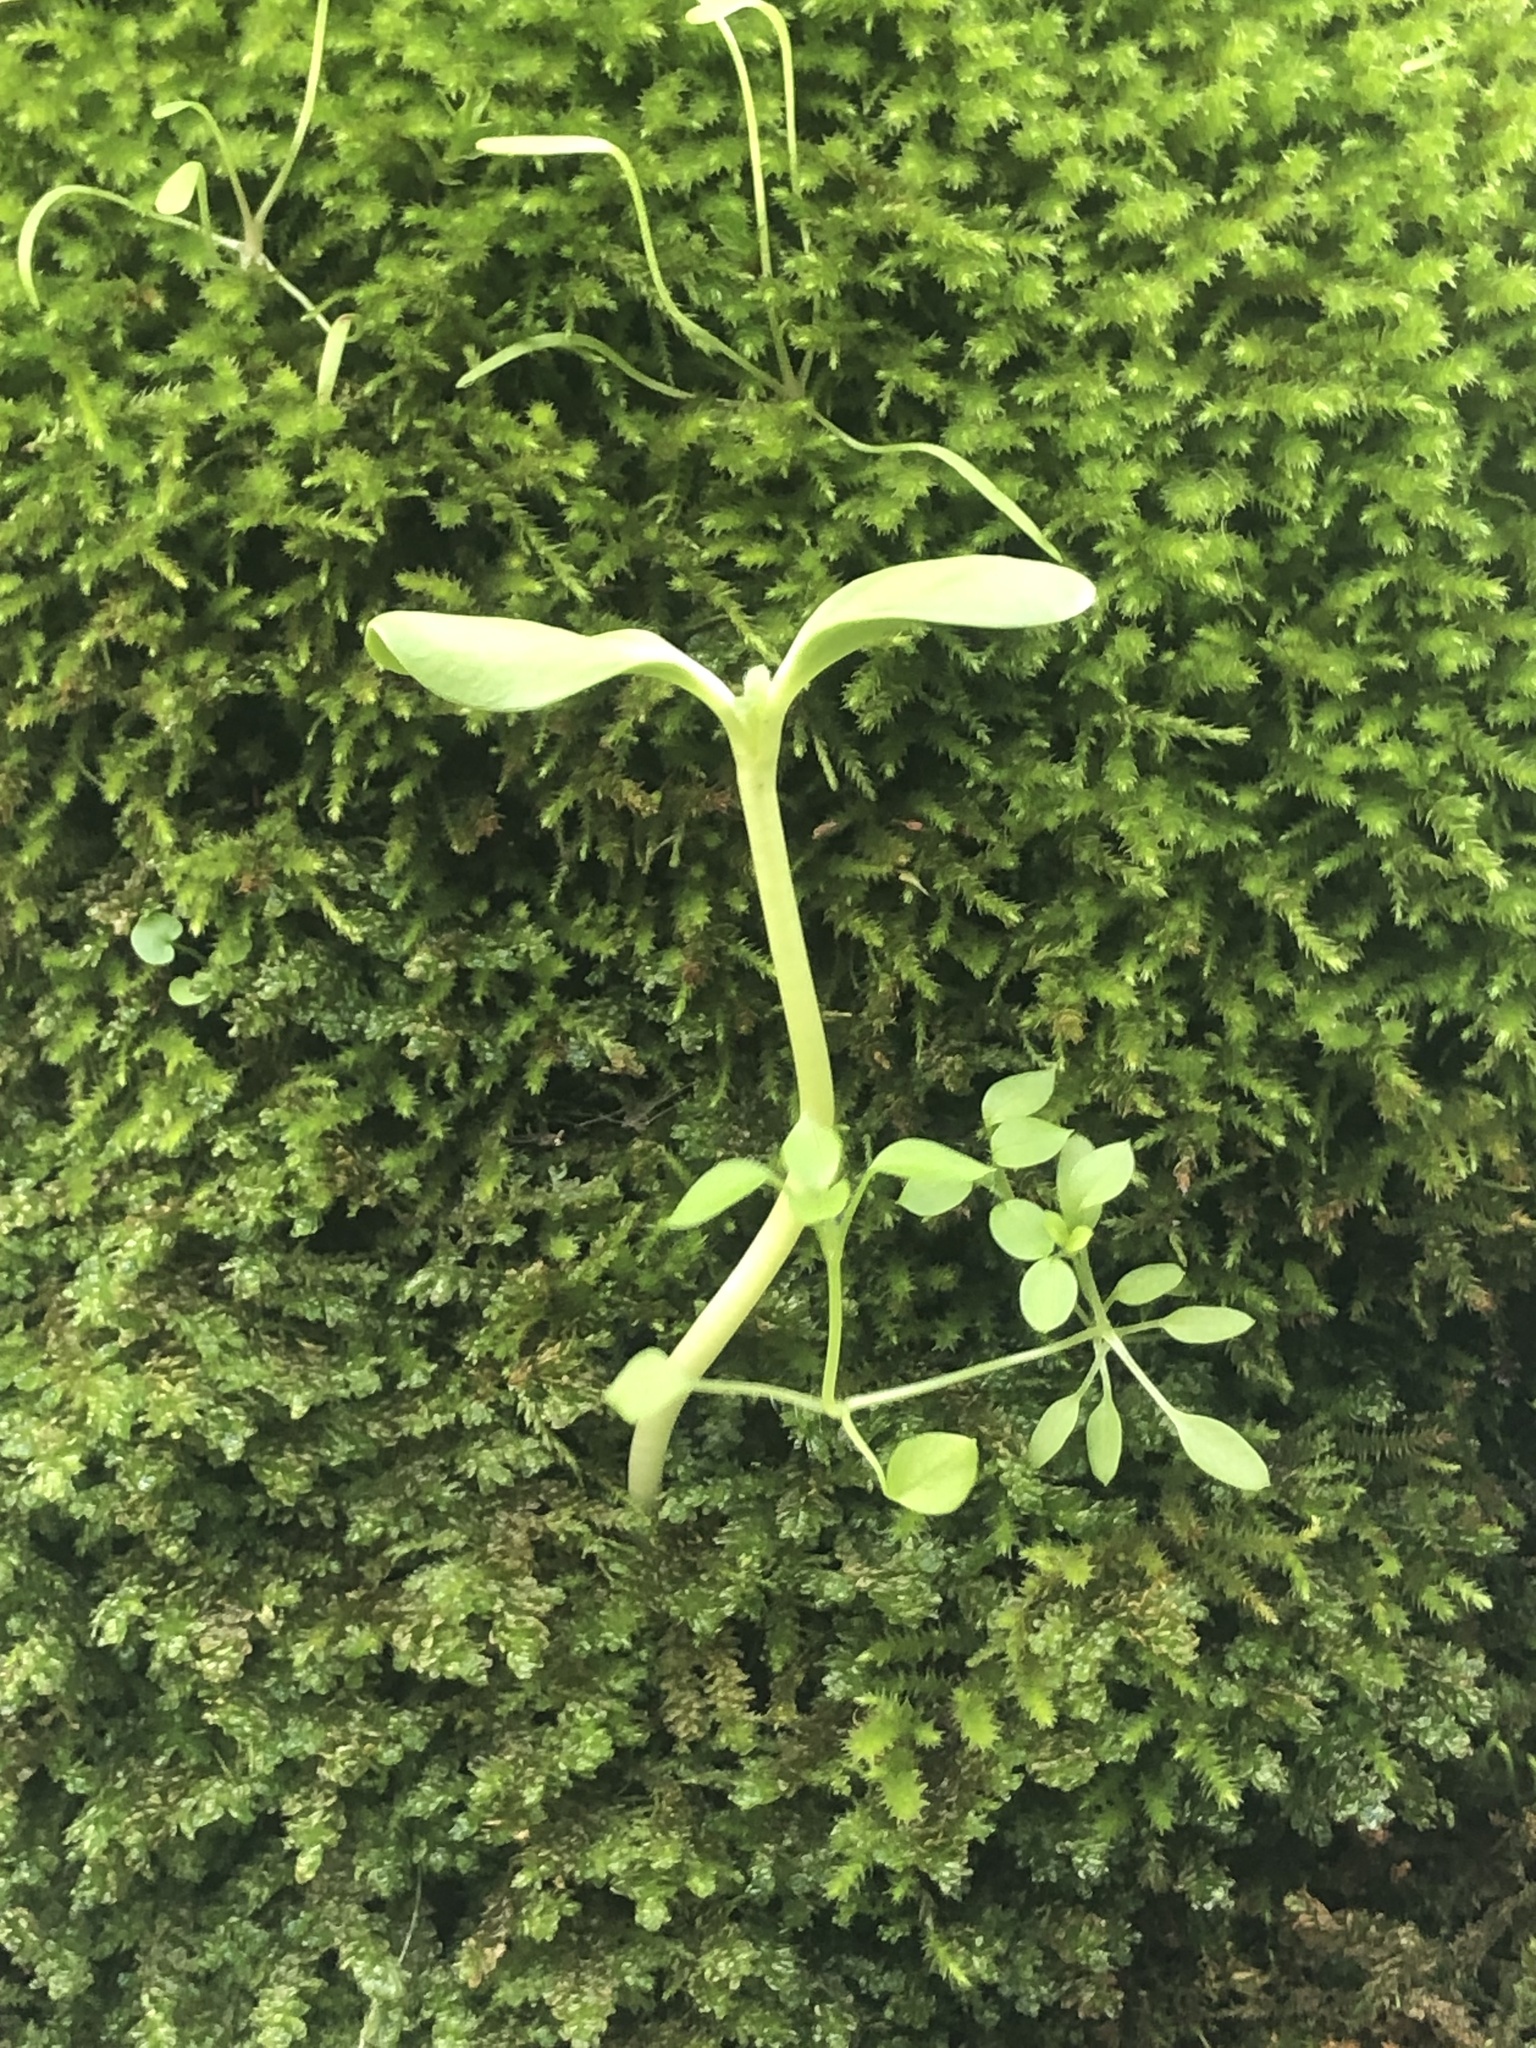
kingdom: Plantae
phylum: Tracheophyta
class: Magnoliopsida
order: Caryophyllales
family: Caryophyllaceae
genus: Stellaria
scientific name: Stellaria media
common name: Common chickweed
